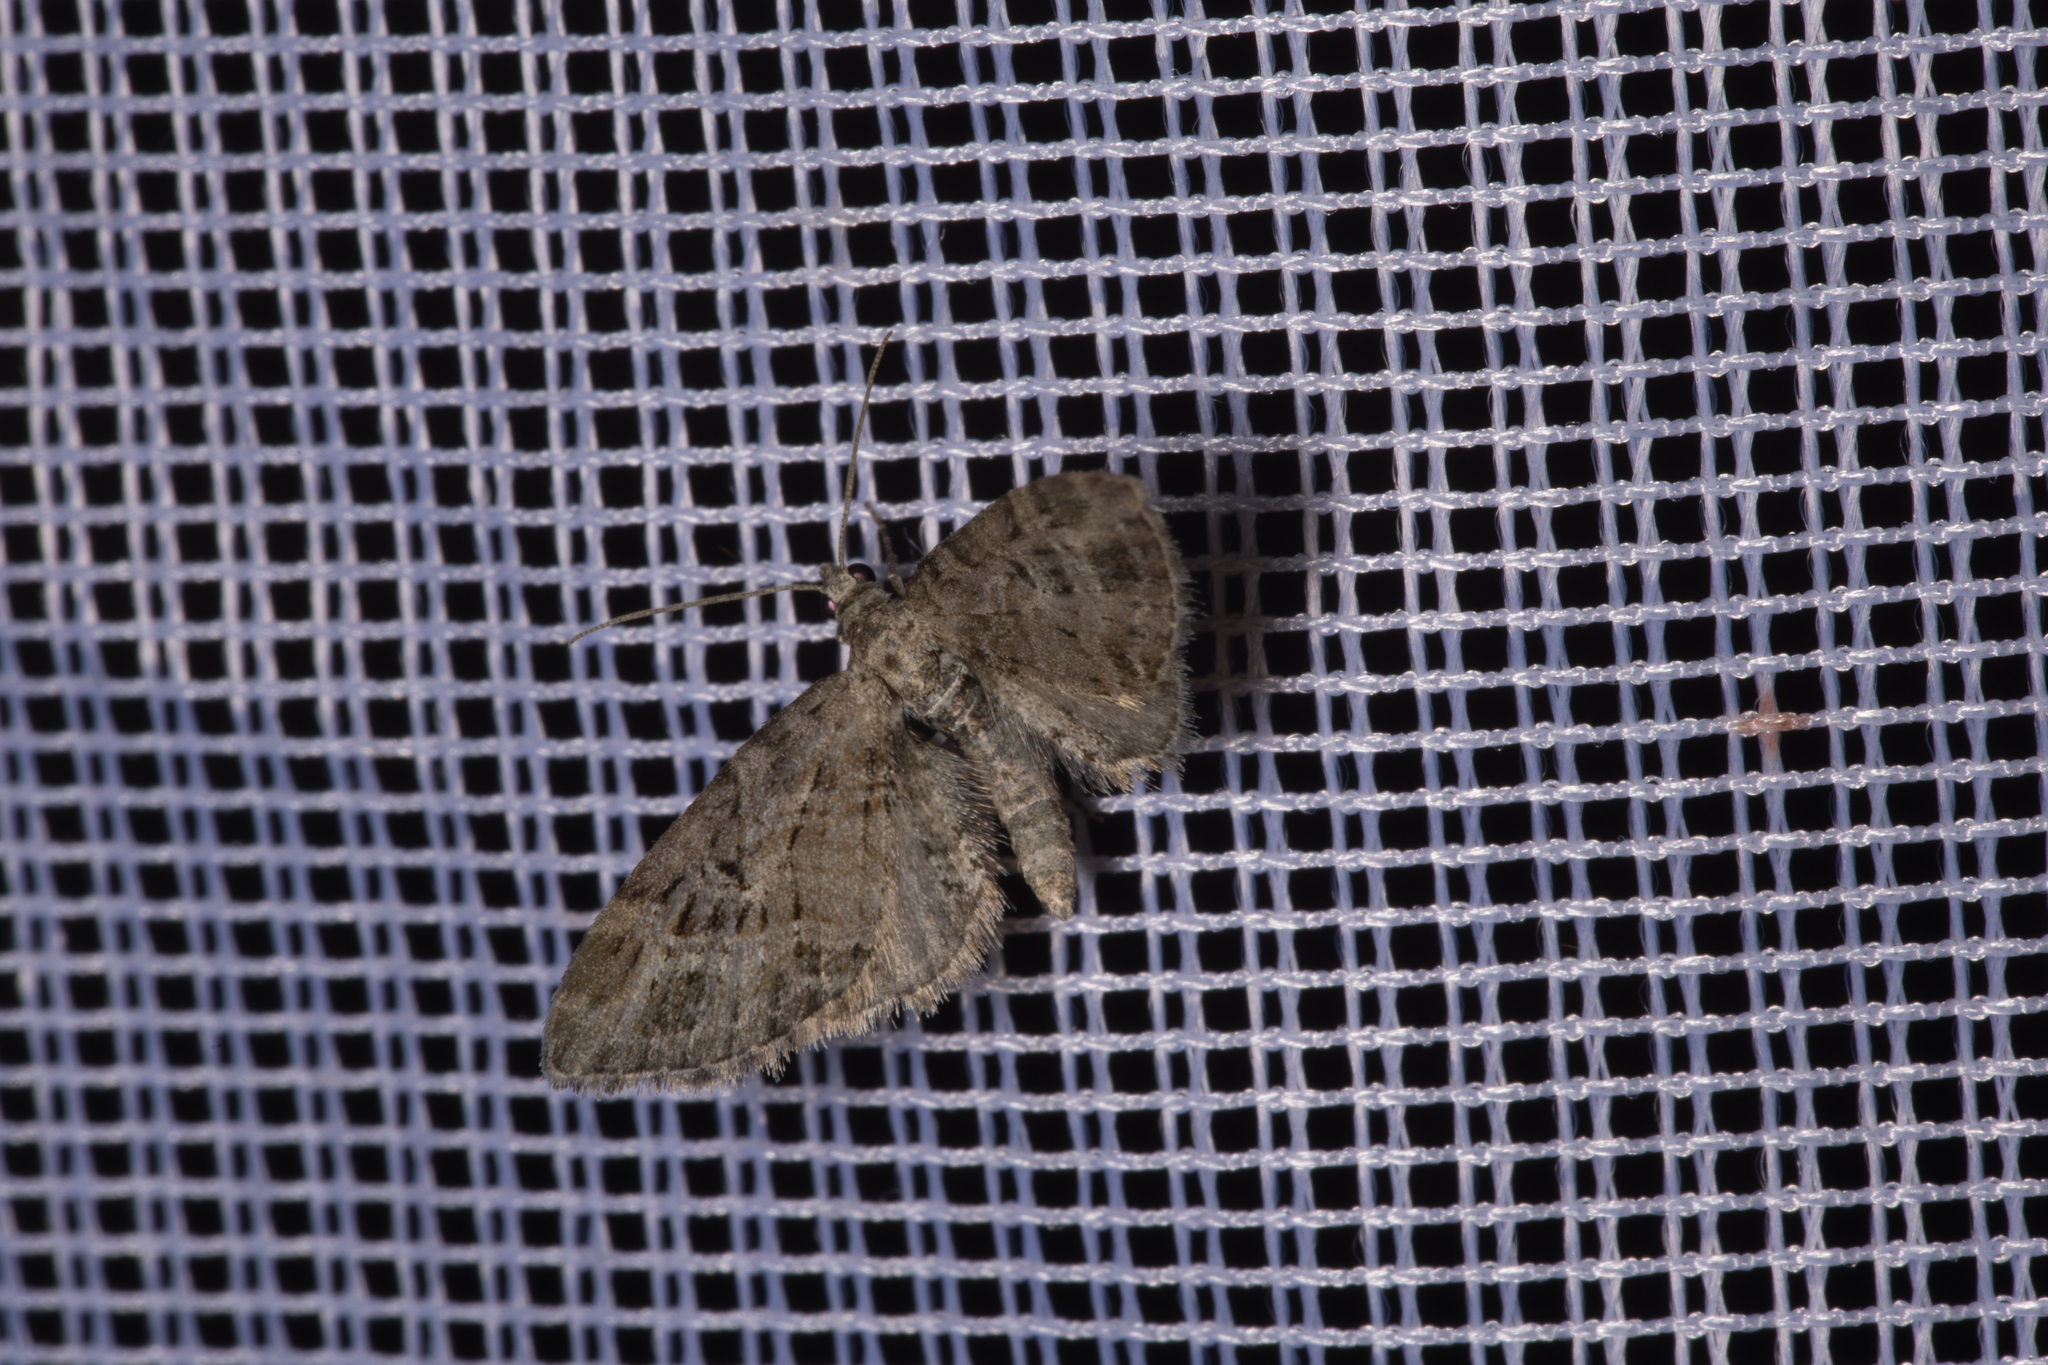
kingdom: Animalia
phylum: Arthropoda
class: Insecta
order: Lepidoptera
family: Geometridae
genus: Eupithecia
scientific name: Eupithecia exiguata
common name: Mottled pug
